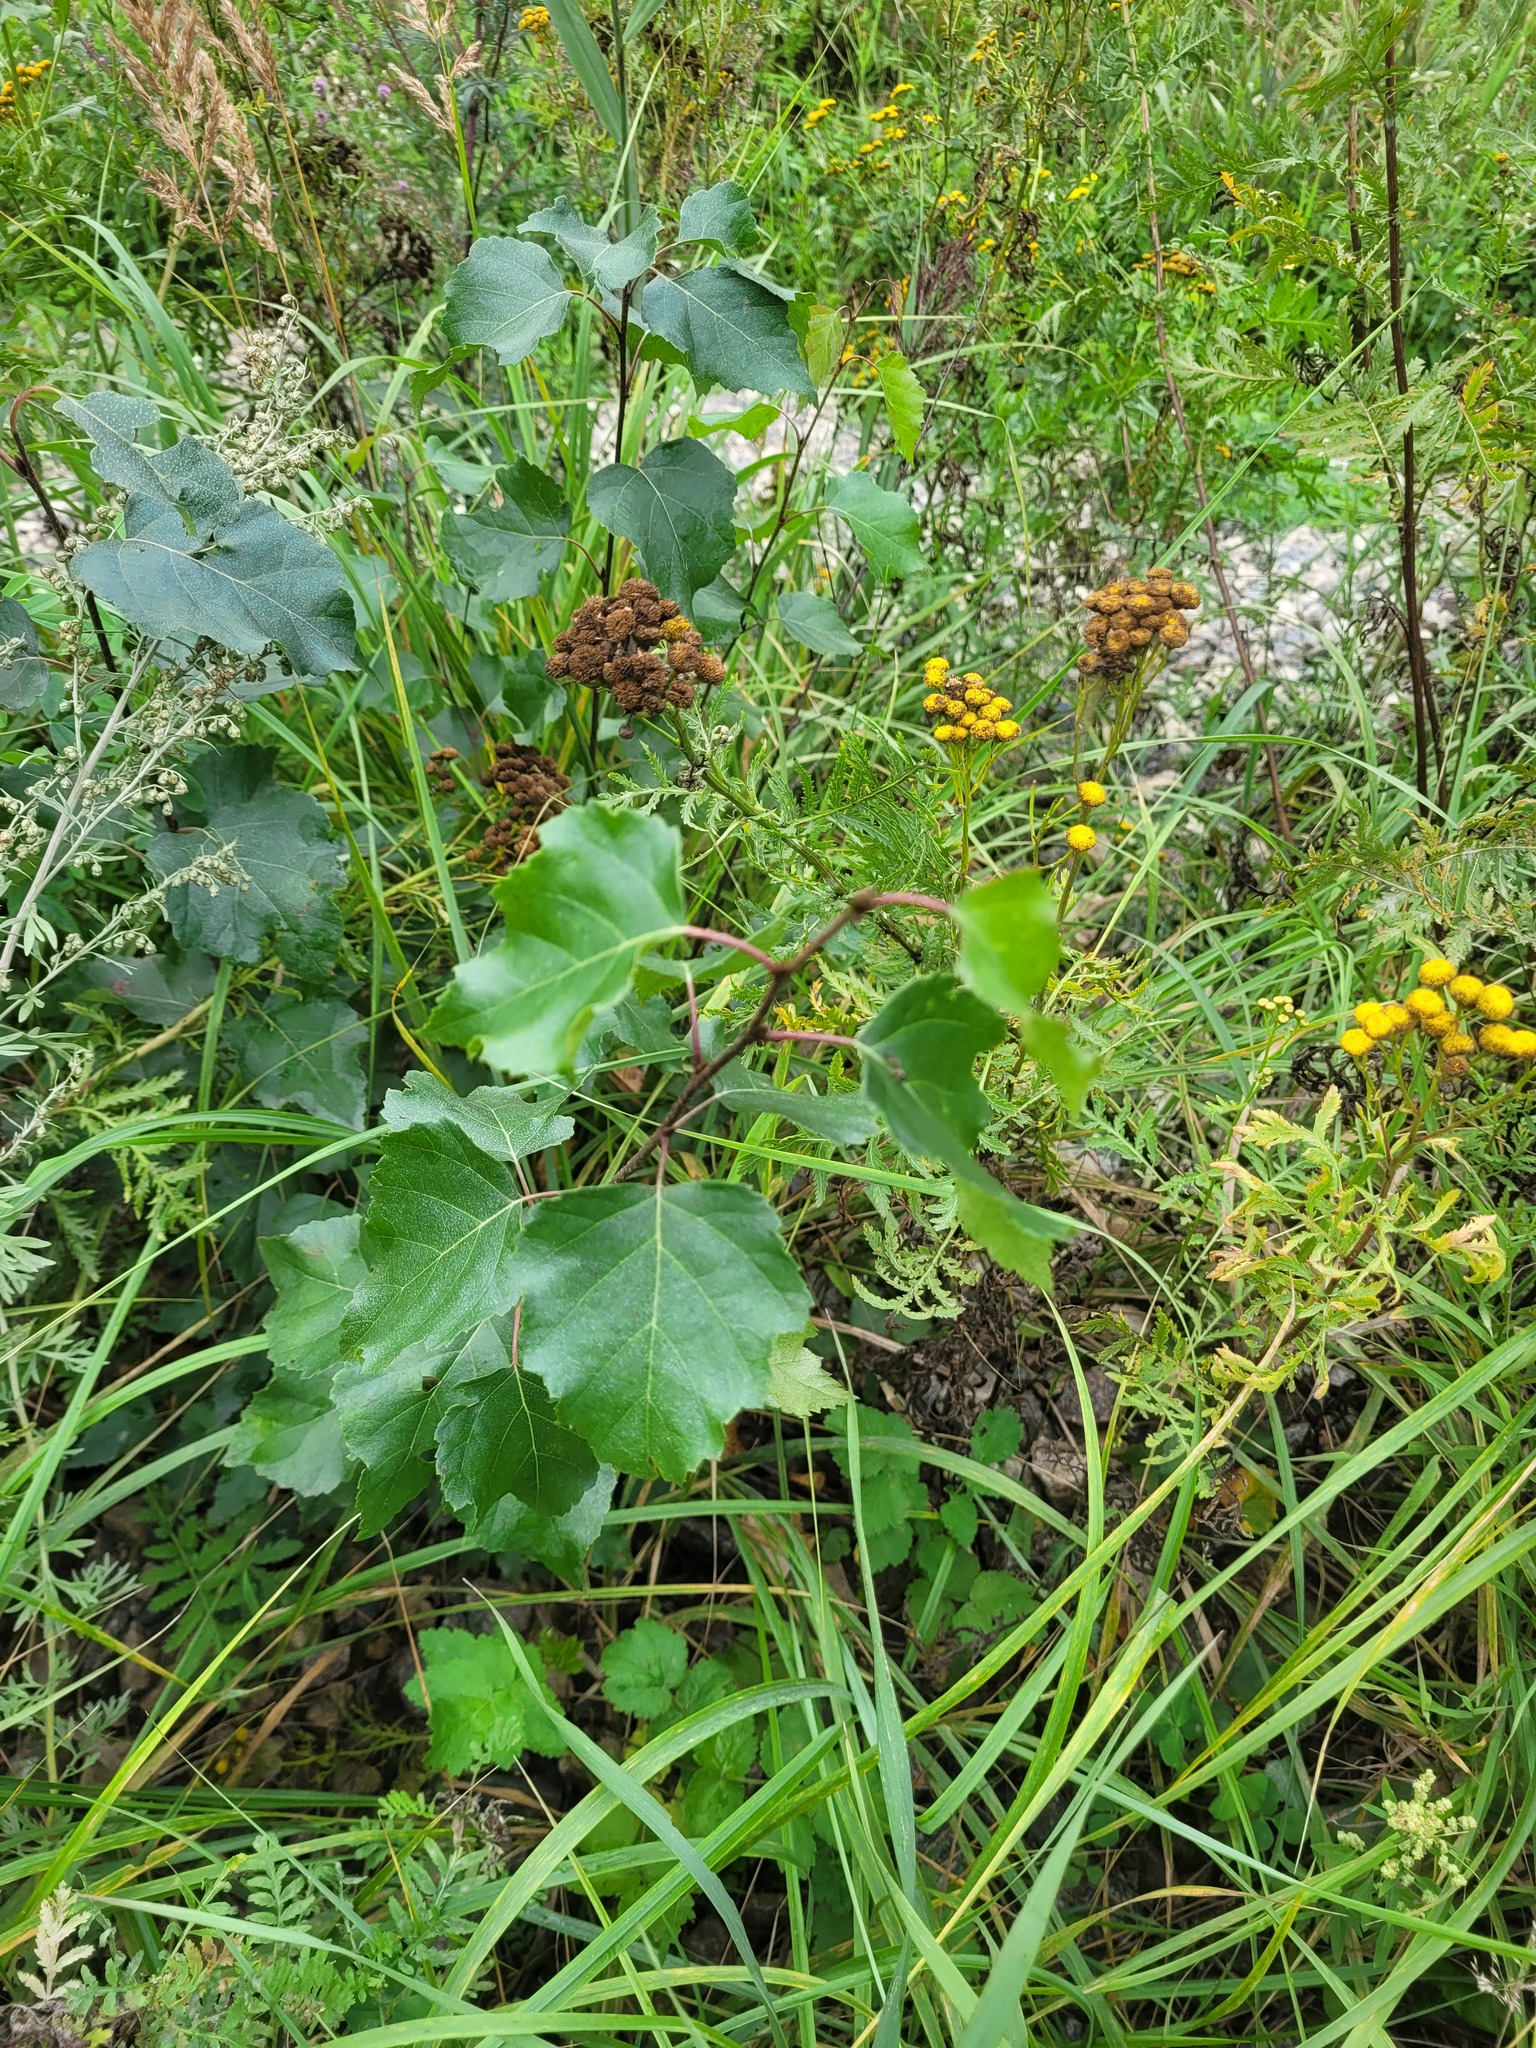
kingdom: Plantae
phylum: Tracheophyta
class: Magnoliopsida
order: Fagales
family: Betulaceae
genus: Betula
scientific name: Betula pendula
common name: Silver birch
